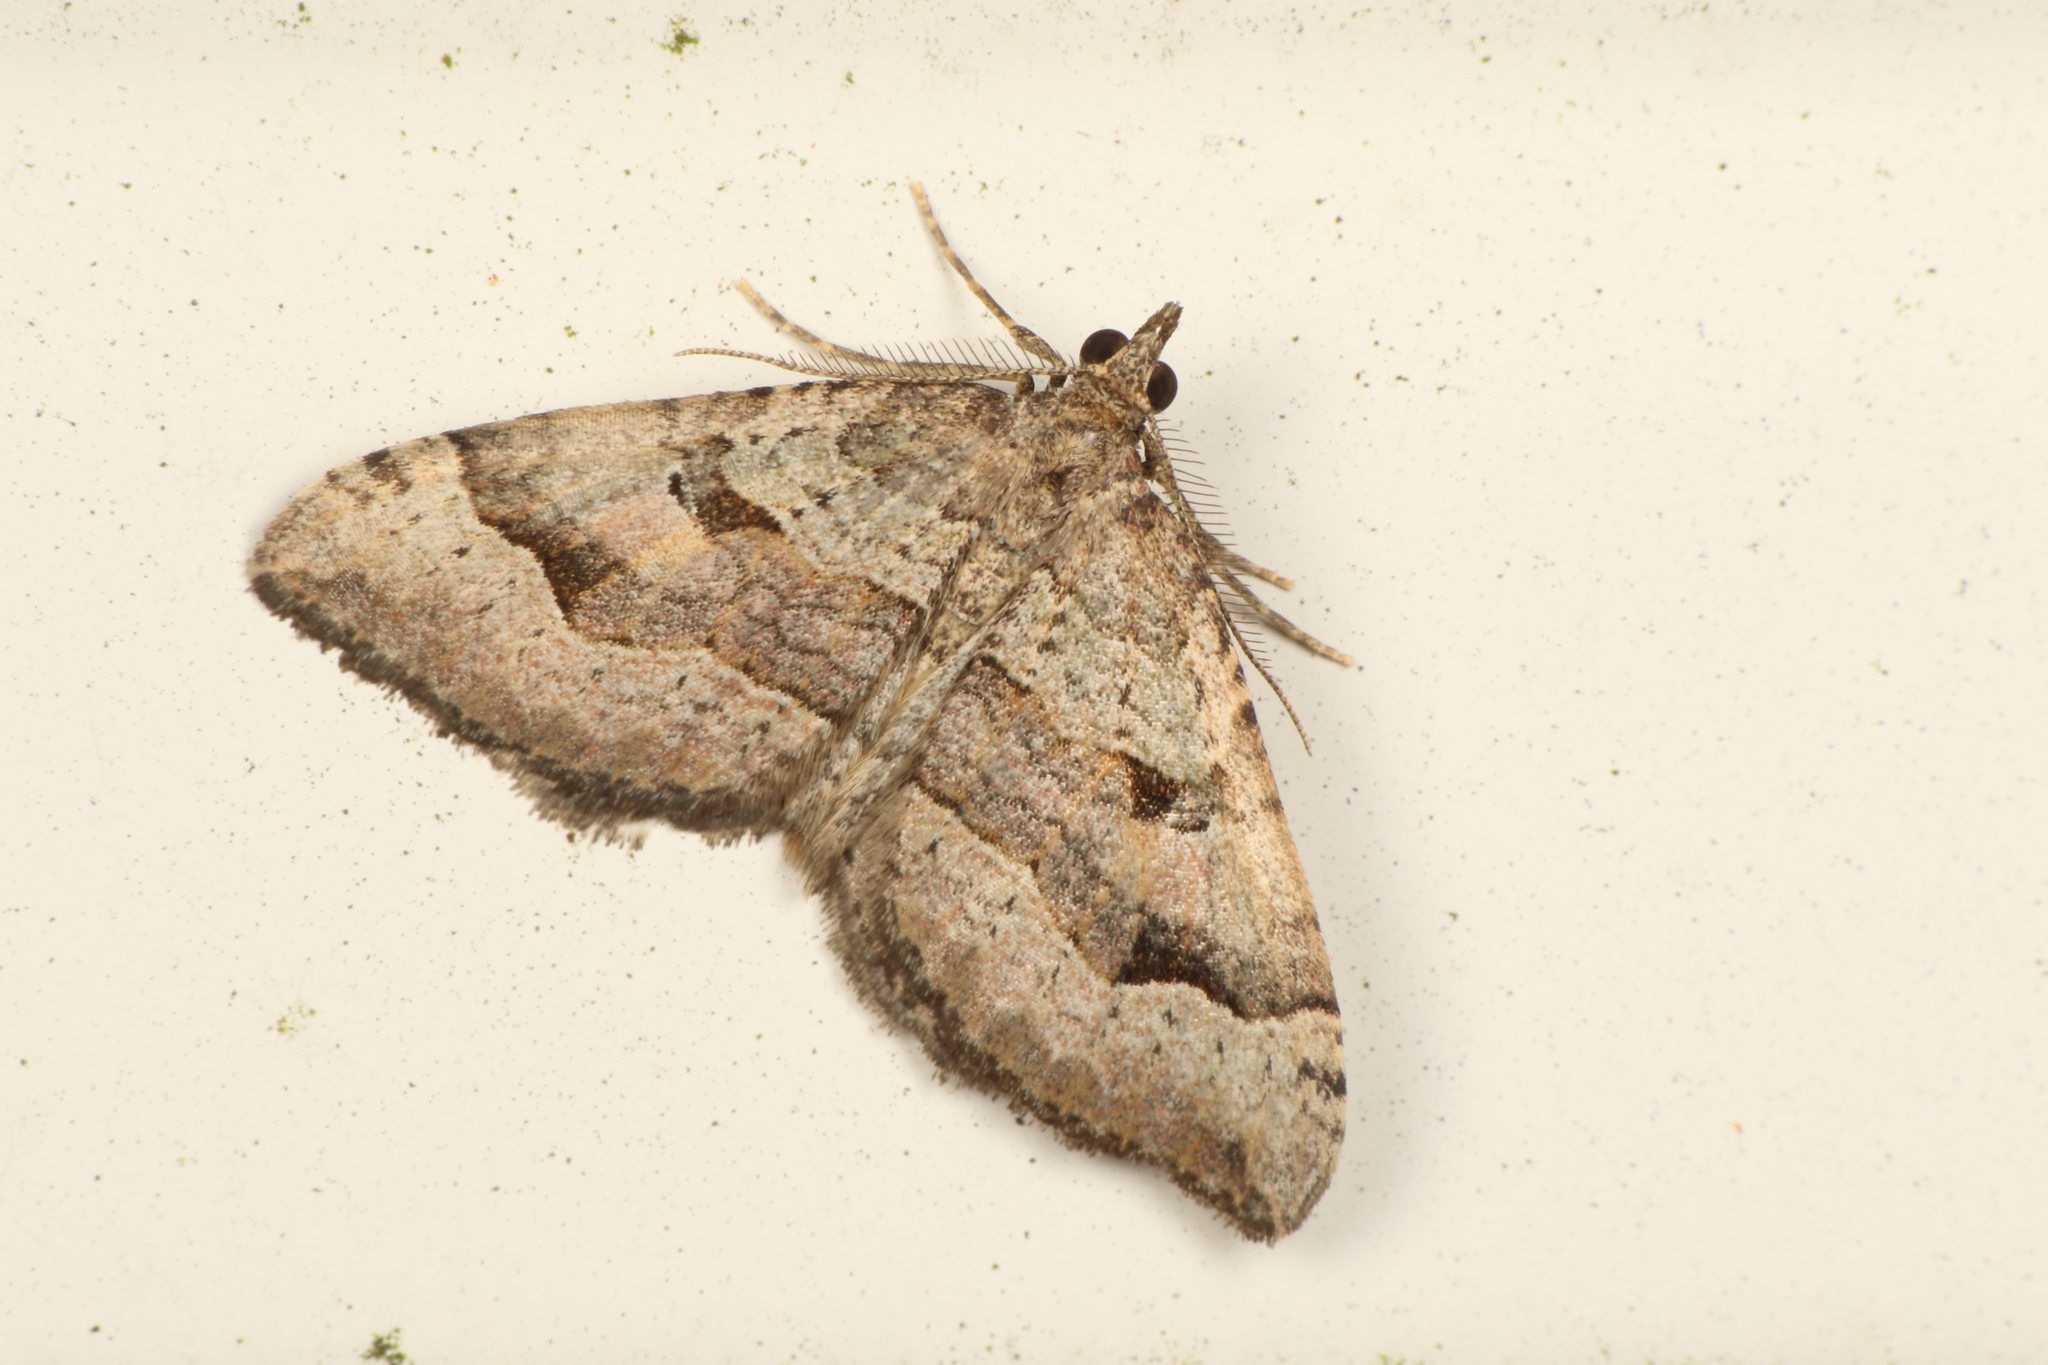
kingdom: Animalia
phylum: Arthropoda
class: Insecta
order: Lepidoptera
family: Geometridae
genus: Epyaxa
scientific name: Epyaxa rosearia
